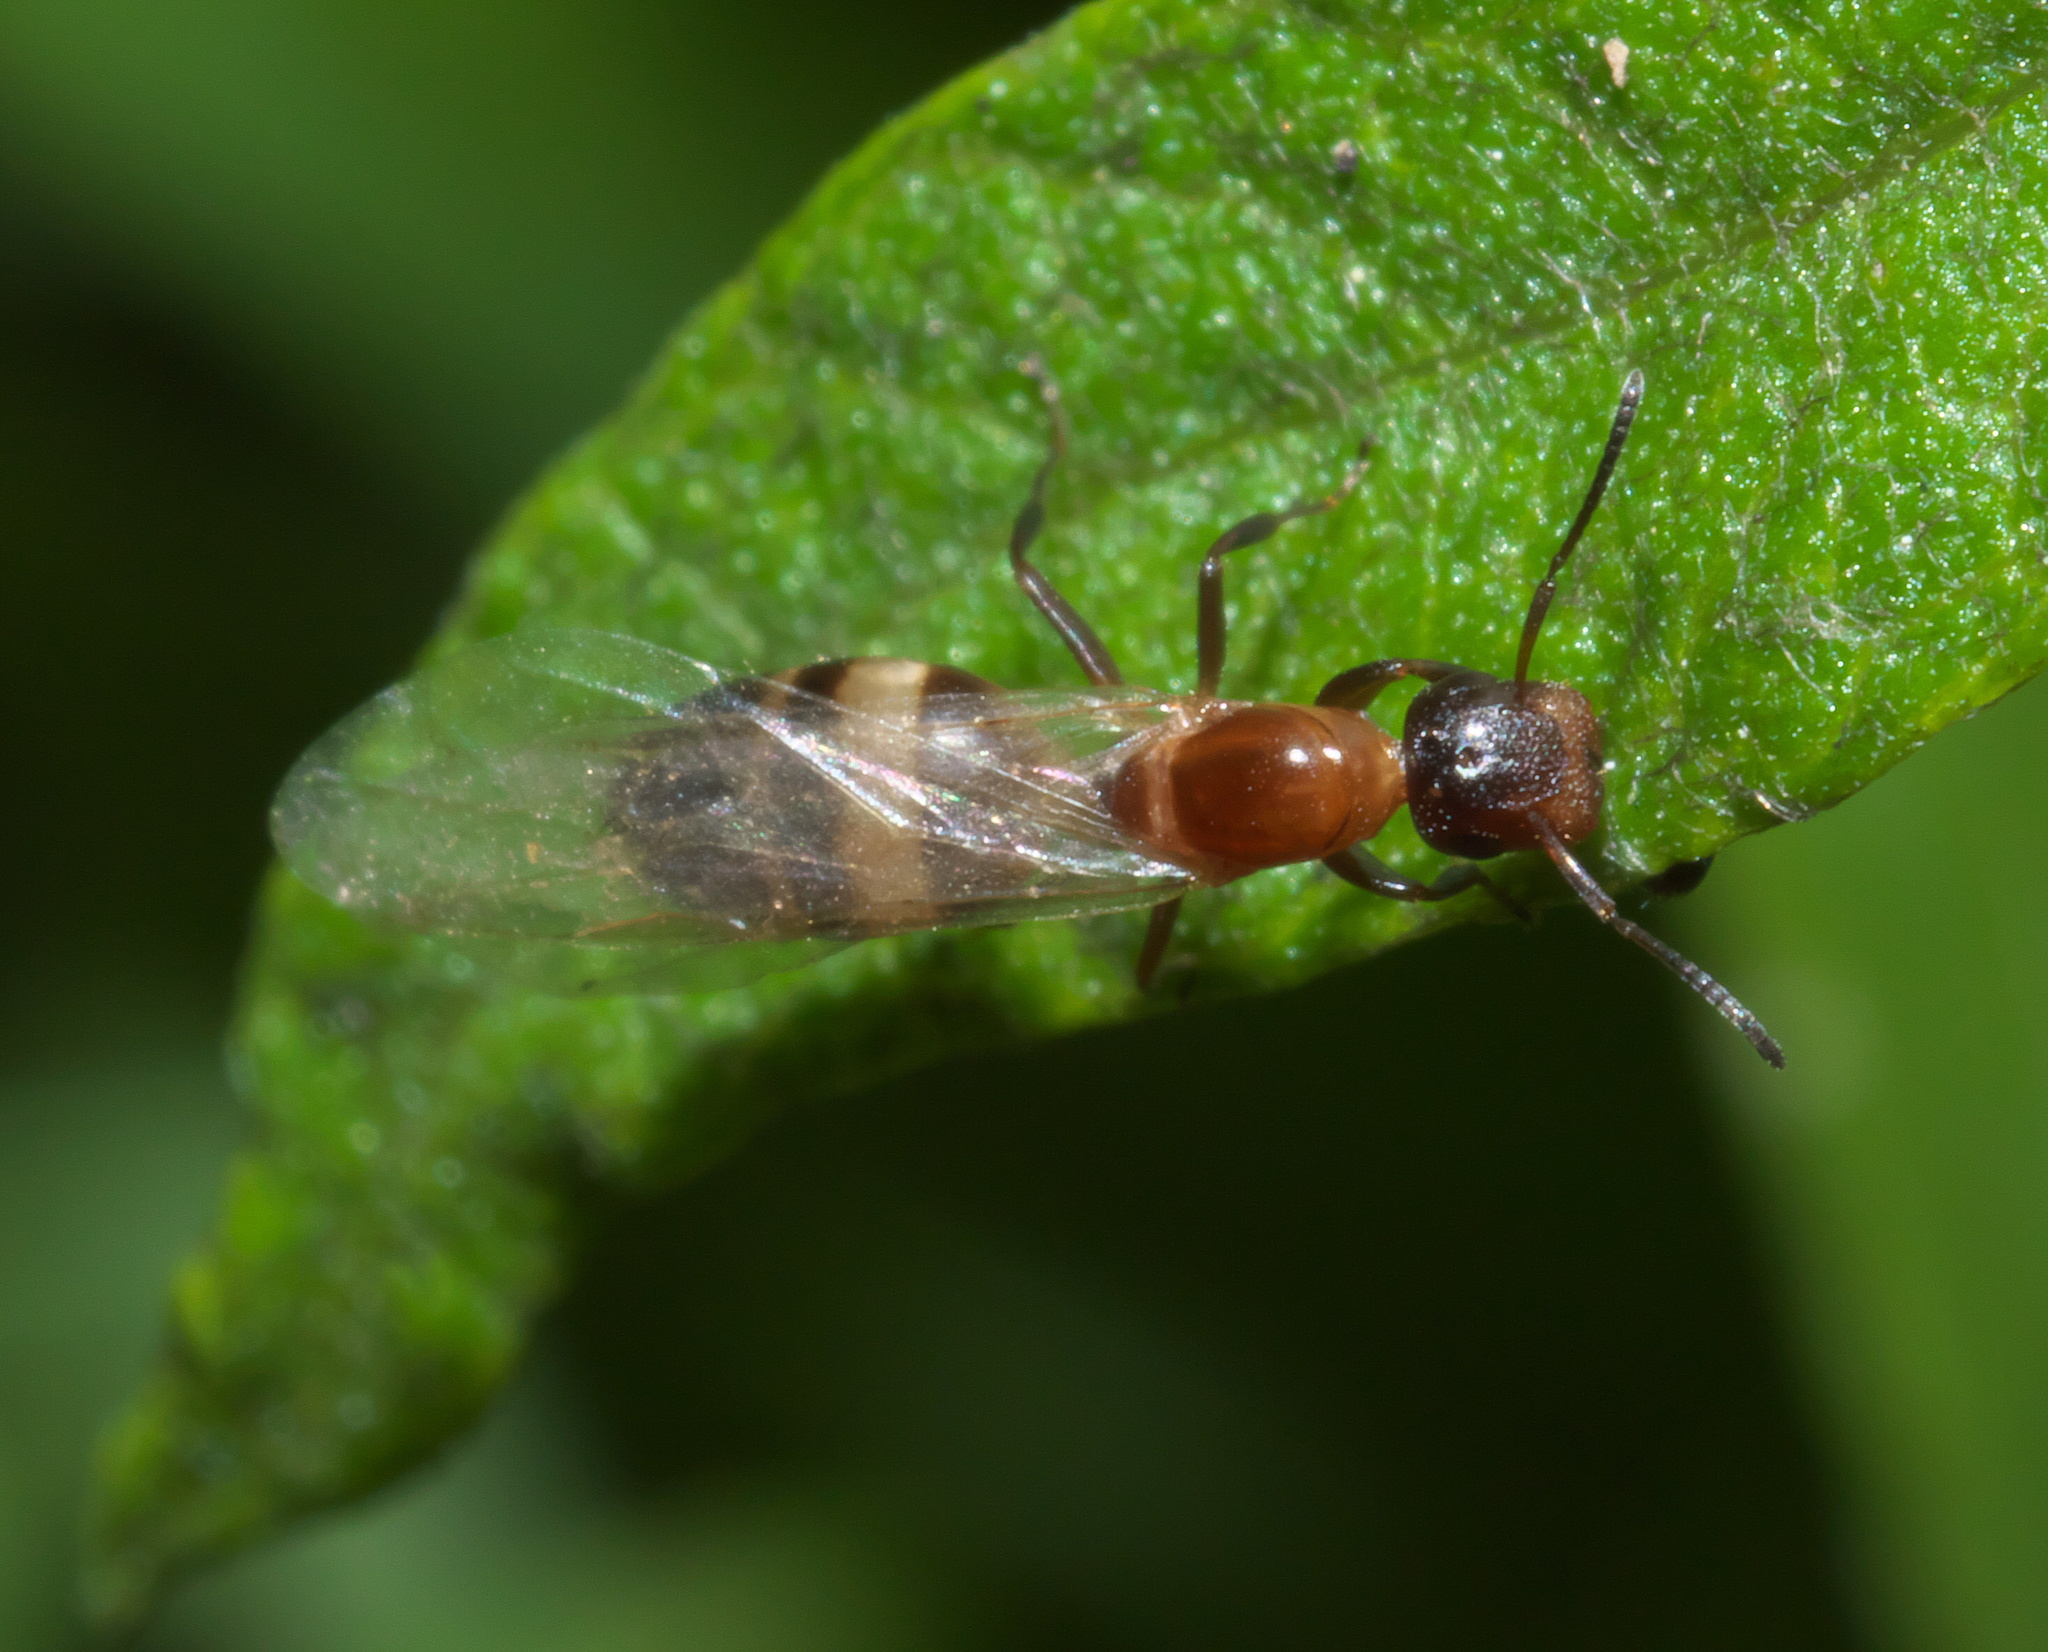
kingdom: Animalia
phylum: Arthropoda
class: Insecta
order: Hymenoptera
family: Formicidae
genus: Colobopsis
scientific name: Colobopsis impressa
